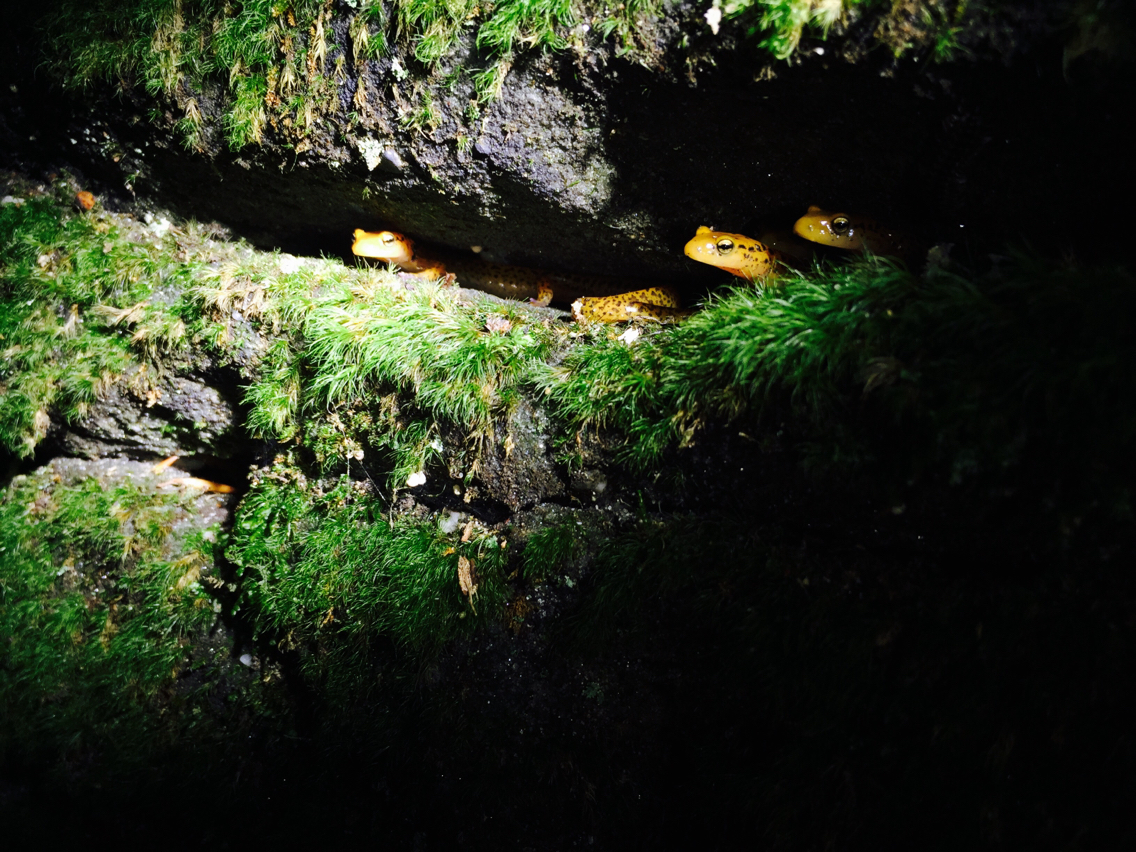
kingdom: Animalia
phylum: Chordata
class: Amphibia
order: Caudata
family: Plethodontidae
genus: Eurycea
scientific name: Eurycea longicauda
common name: Long-tailed salamander
